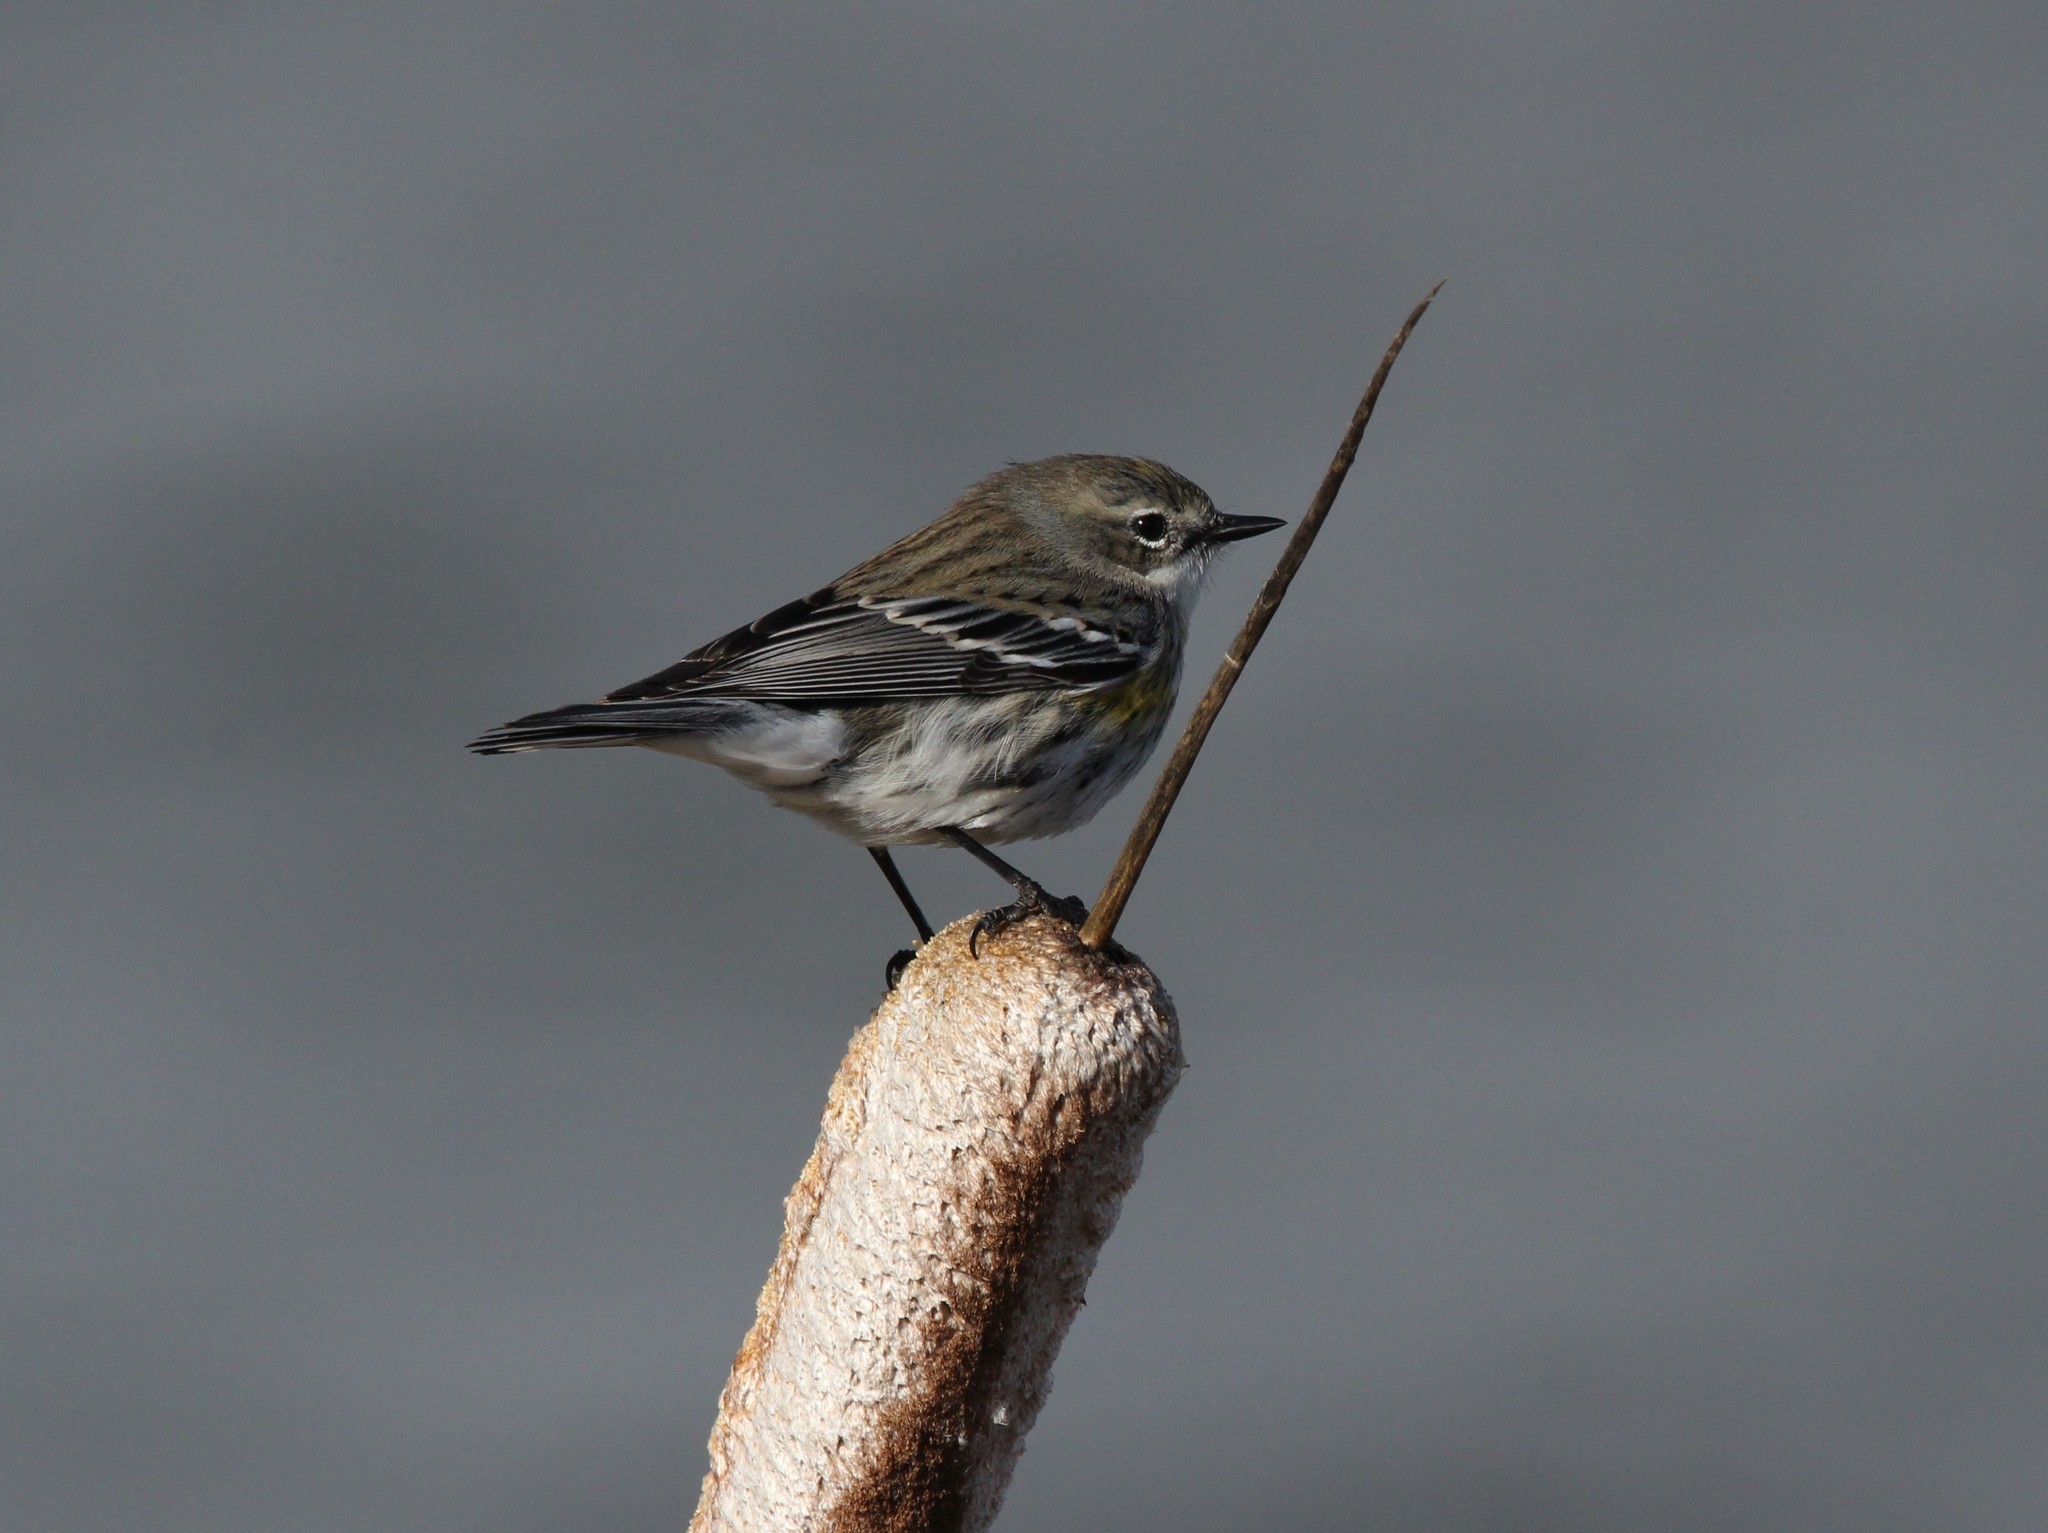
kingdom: Animalia
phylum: Chordata
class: Aves
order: Passeriformes
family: Parulidae
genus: Setophaga
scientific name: Setophaga coronata
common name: Myrtle warbler
